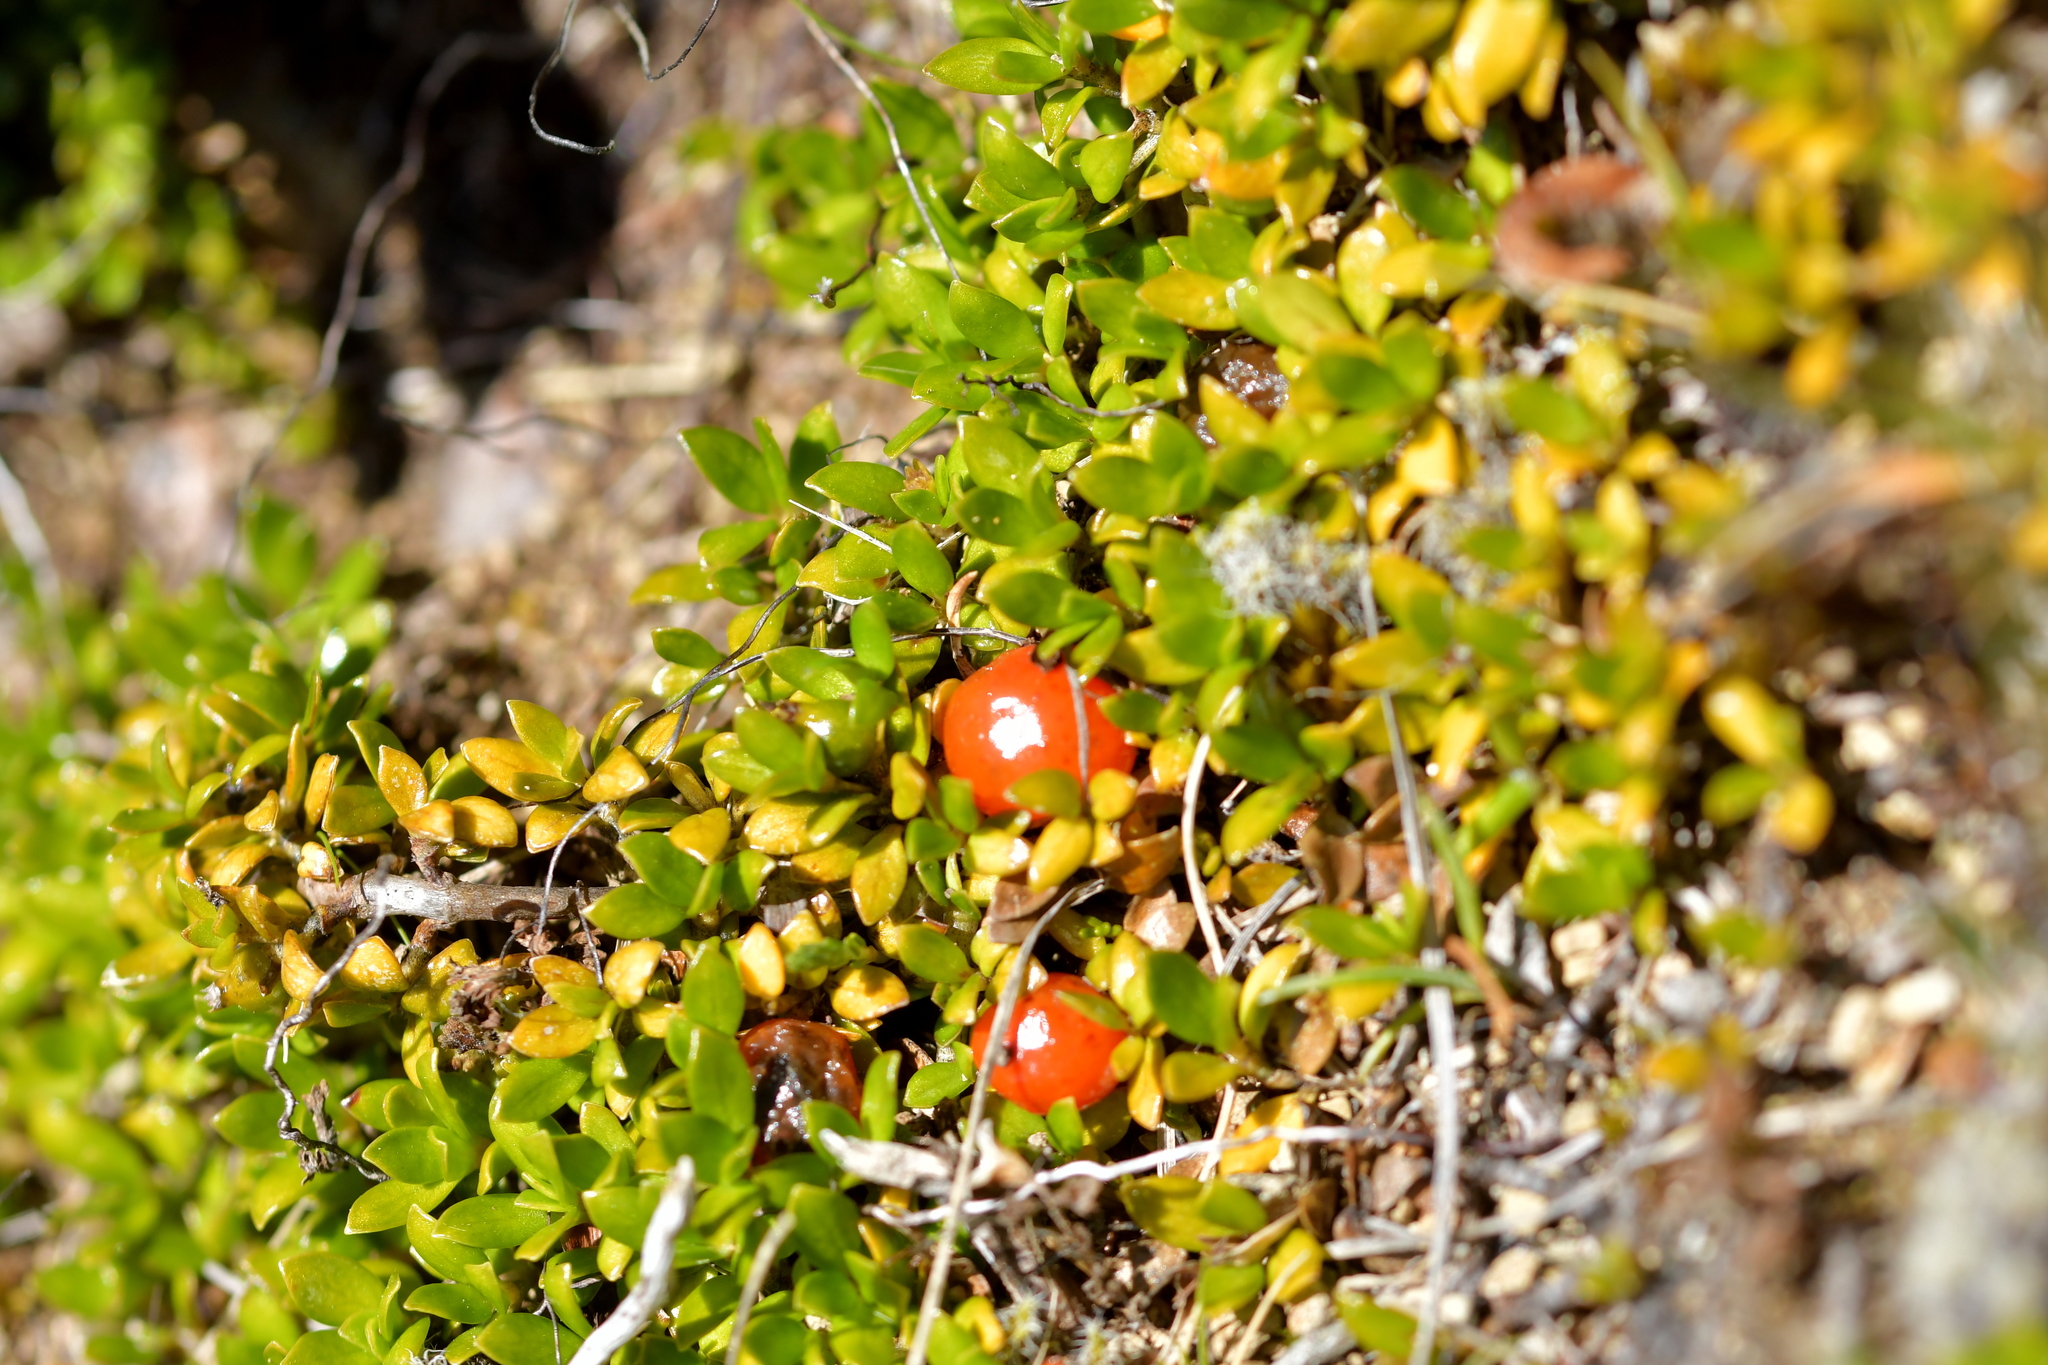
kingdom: Plantae
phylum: Tracheophyta
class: Magnoliopsida
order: Gentianales
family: Rubiaceae
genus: Coprosma
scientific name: Coprosma perpusilla
